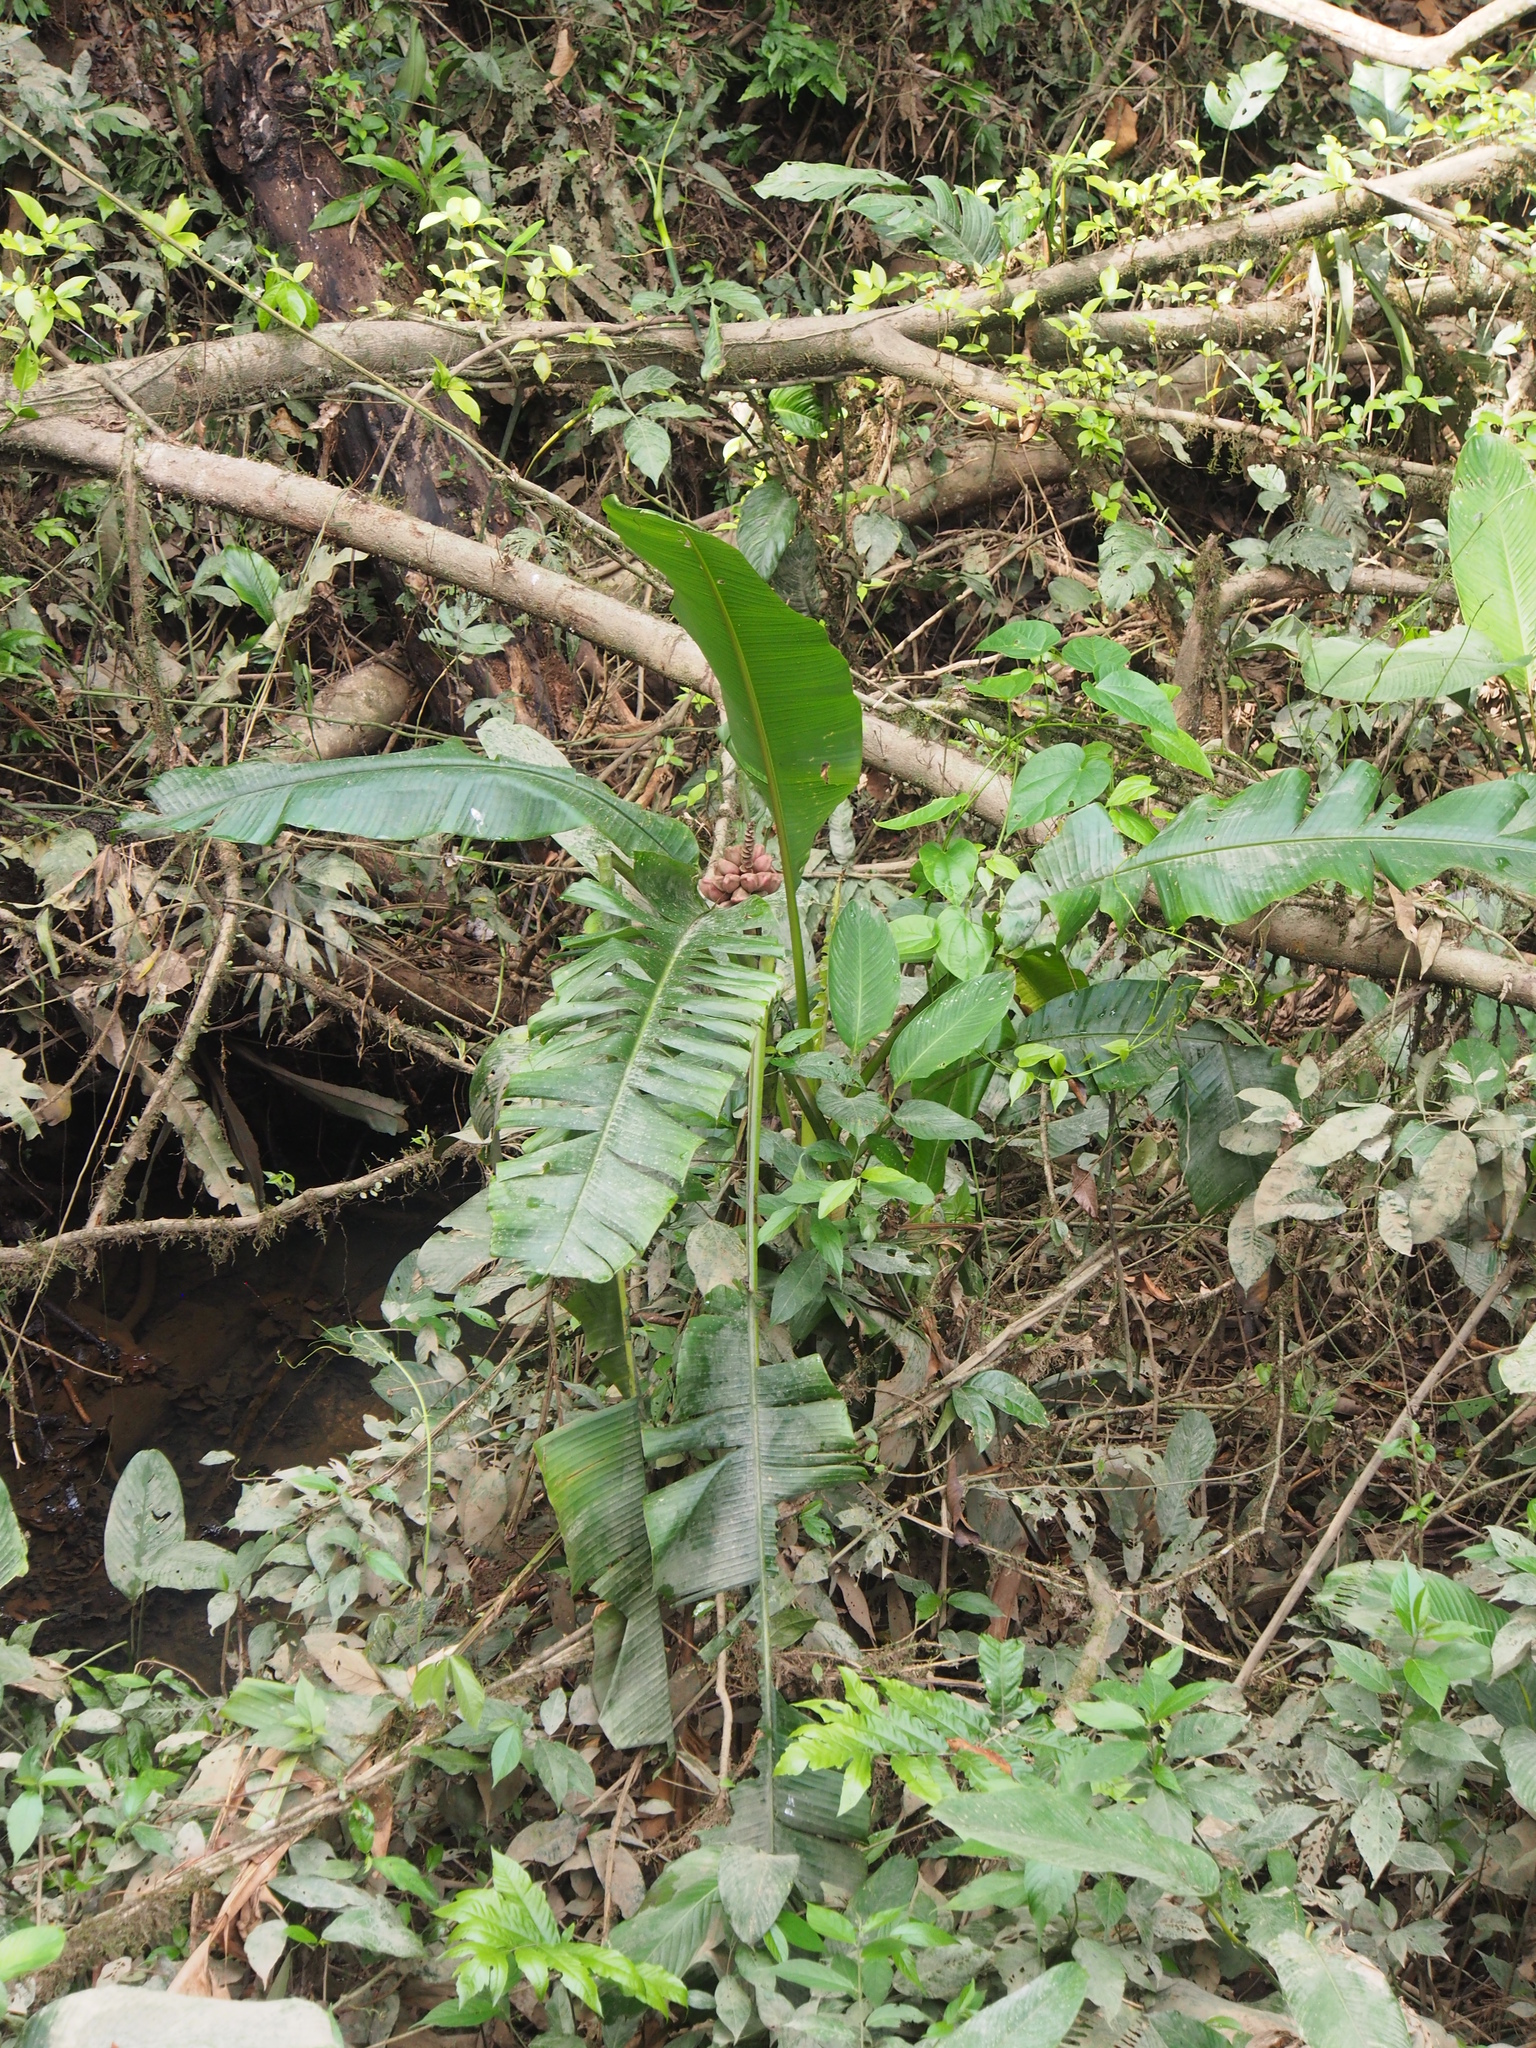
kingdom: Plantae
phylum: Tracheophyta
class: Liliopsida
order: Zingiberales
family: Musaceae
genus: Musa
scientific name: Musa velutina
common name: Pink velvet banana
